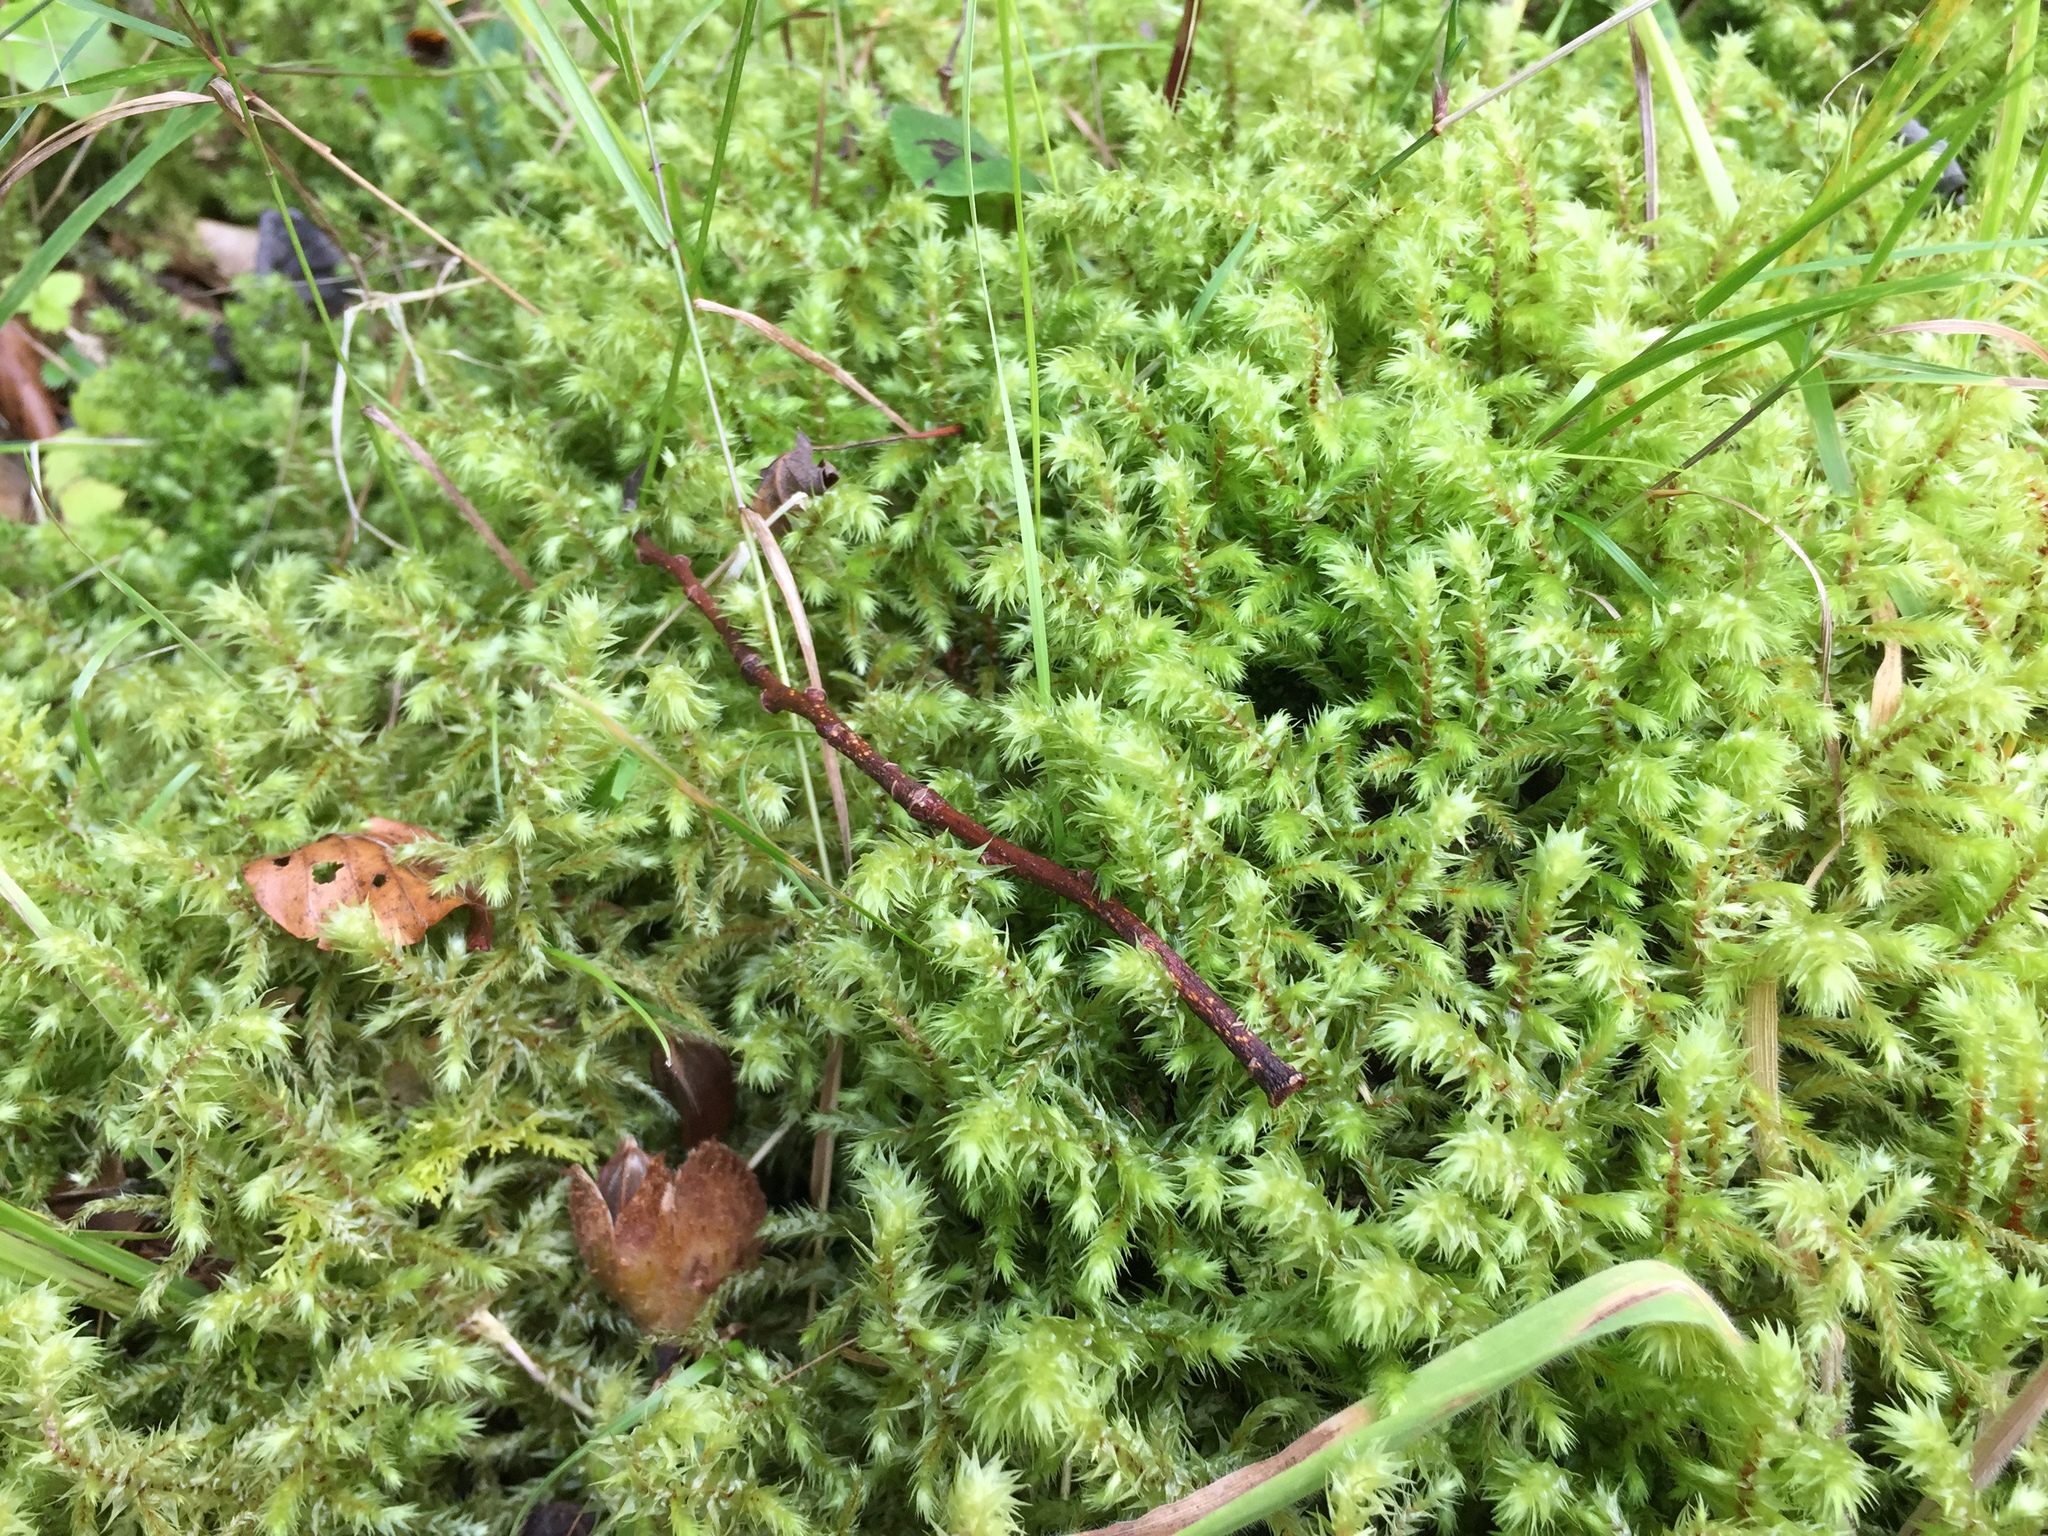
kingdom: Plantae
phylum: Bryophyta
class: Bryopsida
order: Hypnales
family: Hylocomiaceae
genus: Hylocomiadelphus
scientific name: Hylocomiadelphus triquetrus
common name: Rough goose neck moss
